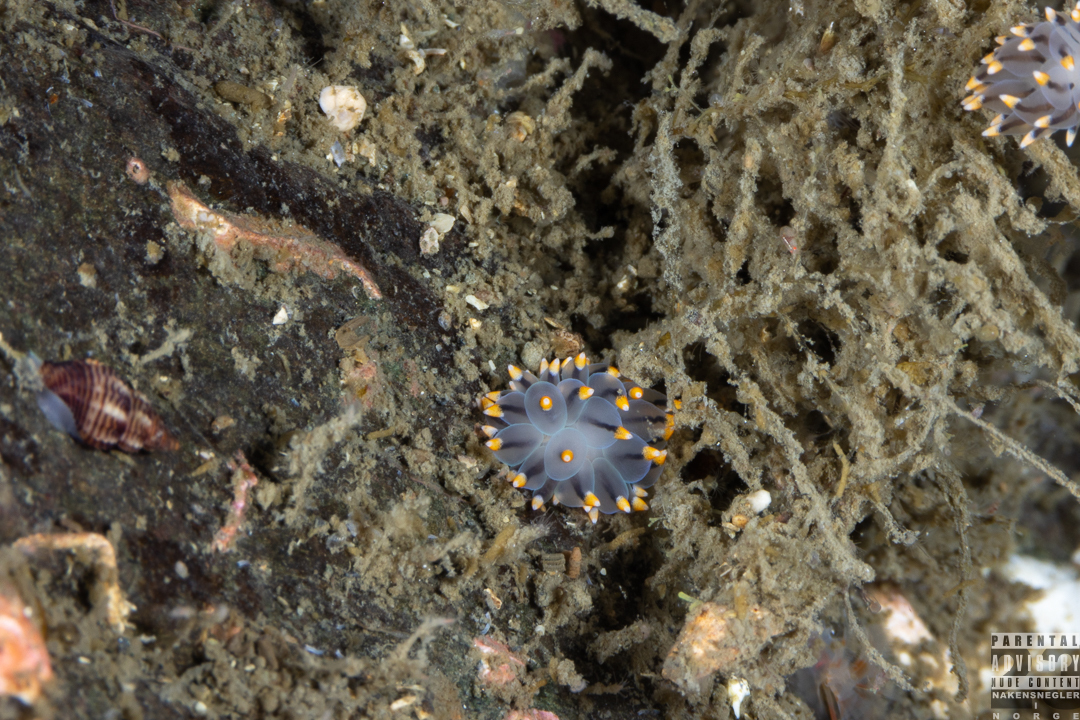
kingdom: Animalia
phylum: Mollusca
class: Gastropoda
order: Nudibranchia
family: Eubranchidae
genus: Eubranchus
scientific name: Eubranchus tricolor
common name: Painted balloon aeolis
